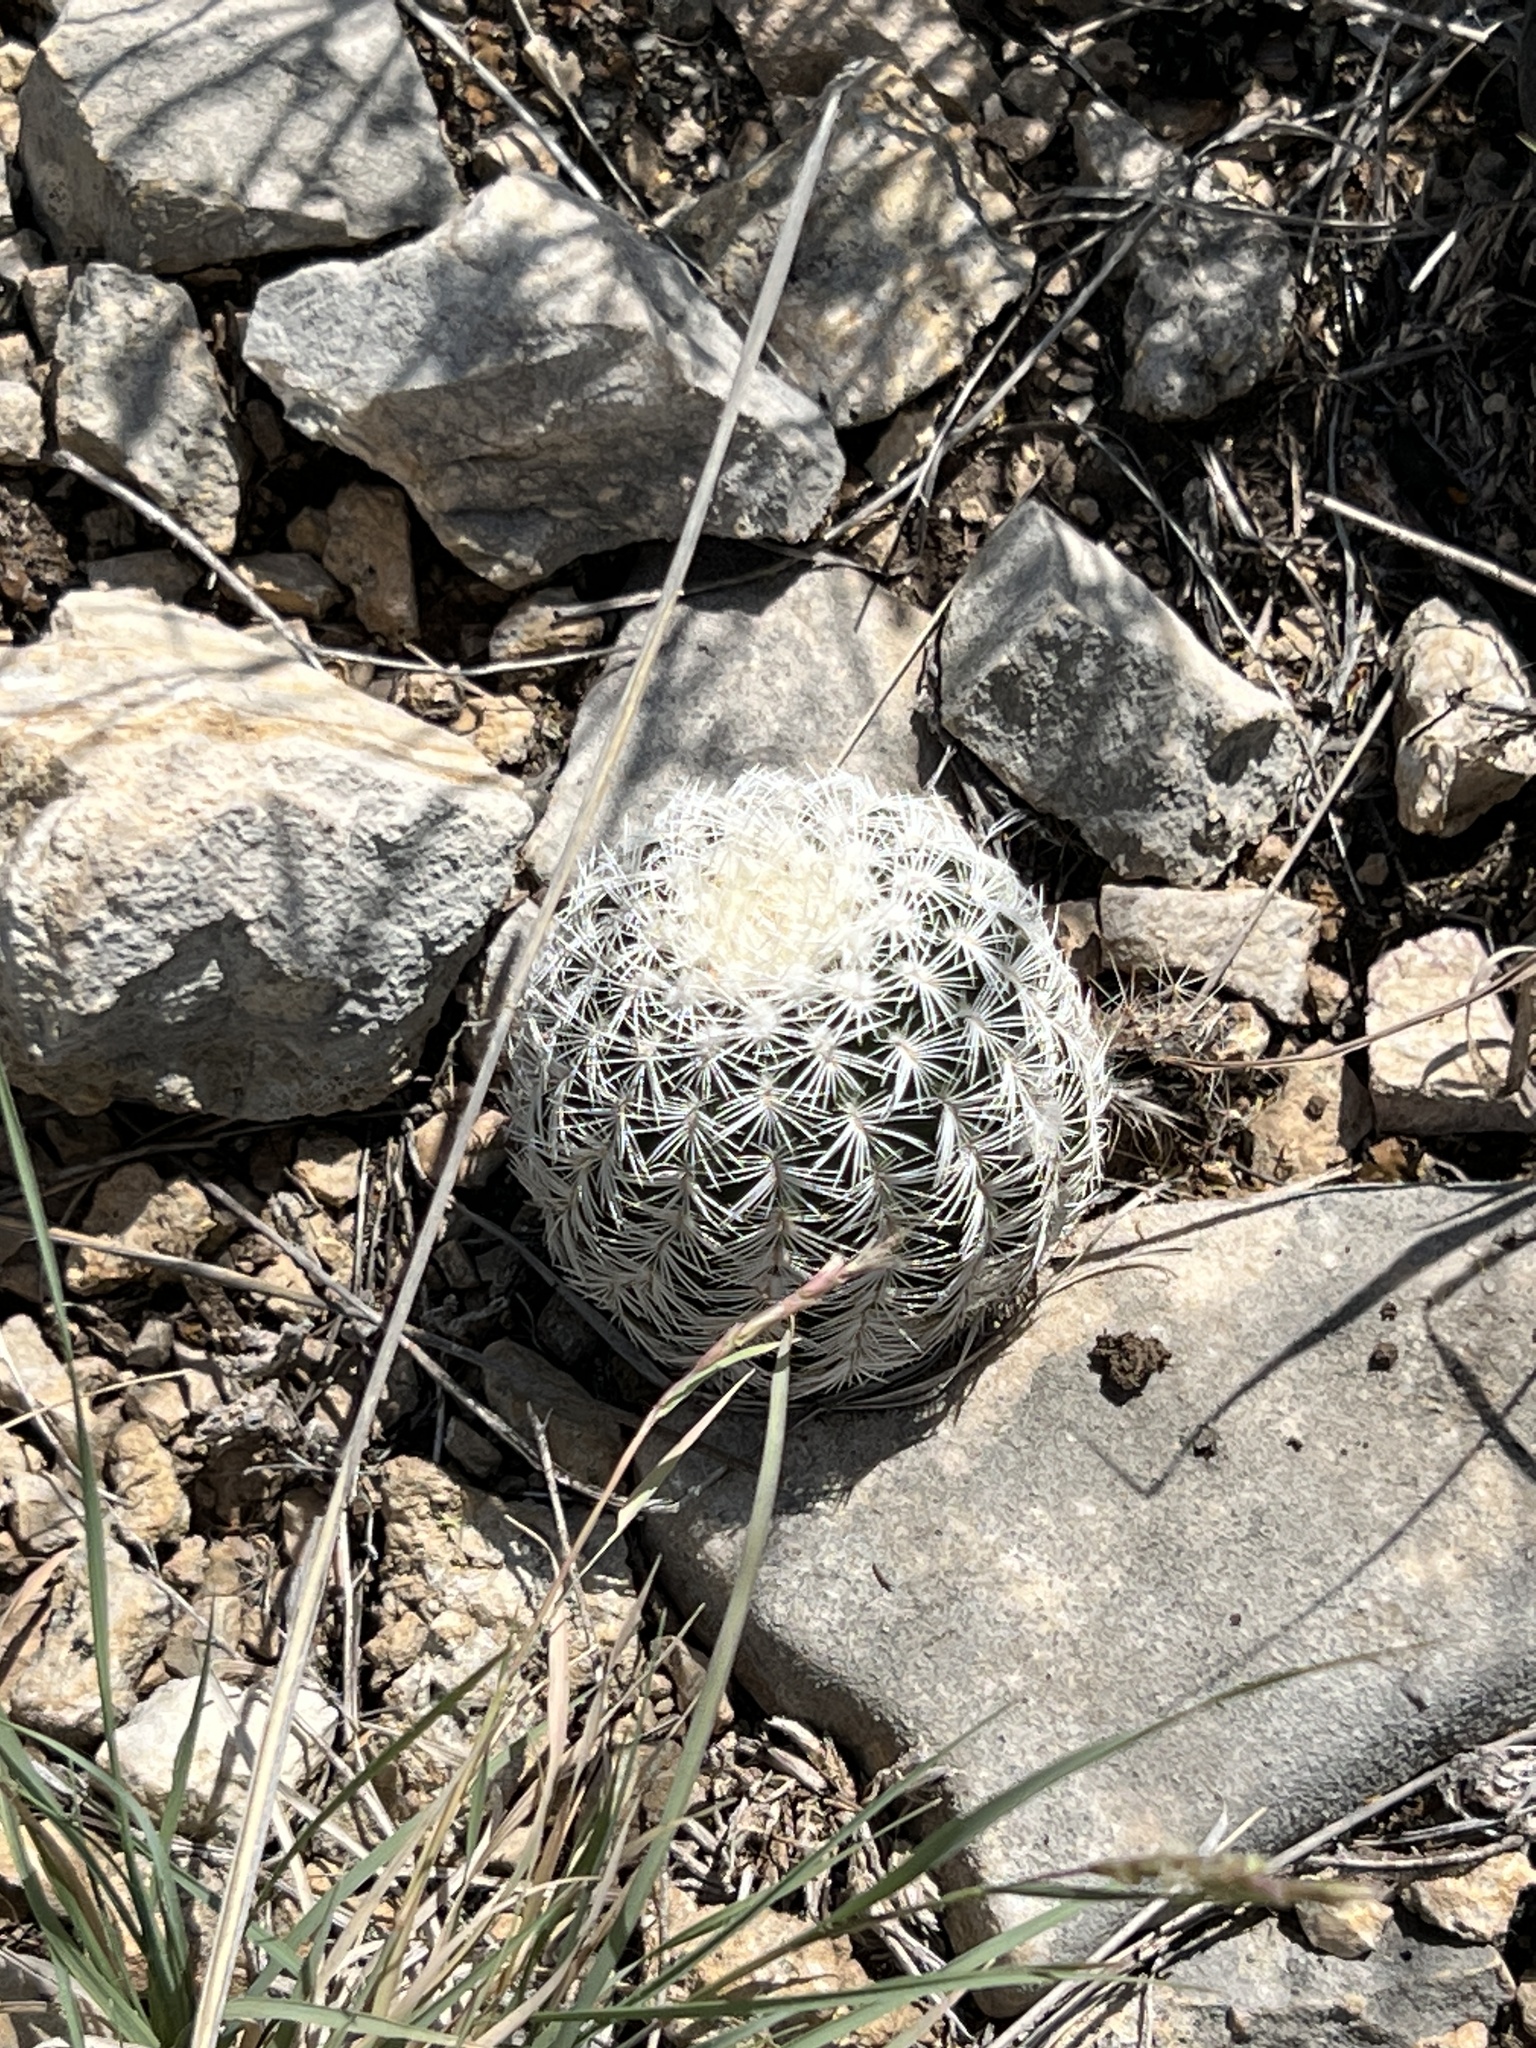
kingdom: Plantae
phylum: Tracheophyta
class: Magnoliopsida
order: Caryophyllales
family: Cactaceae
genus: Echinocereus
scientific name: Echinocereus reichenbachii
